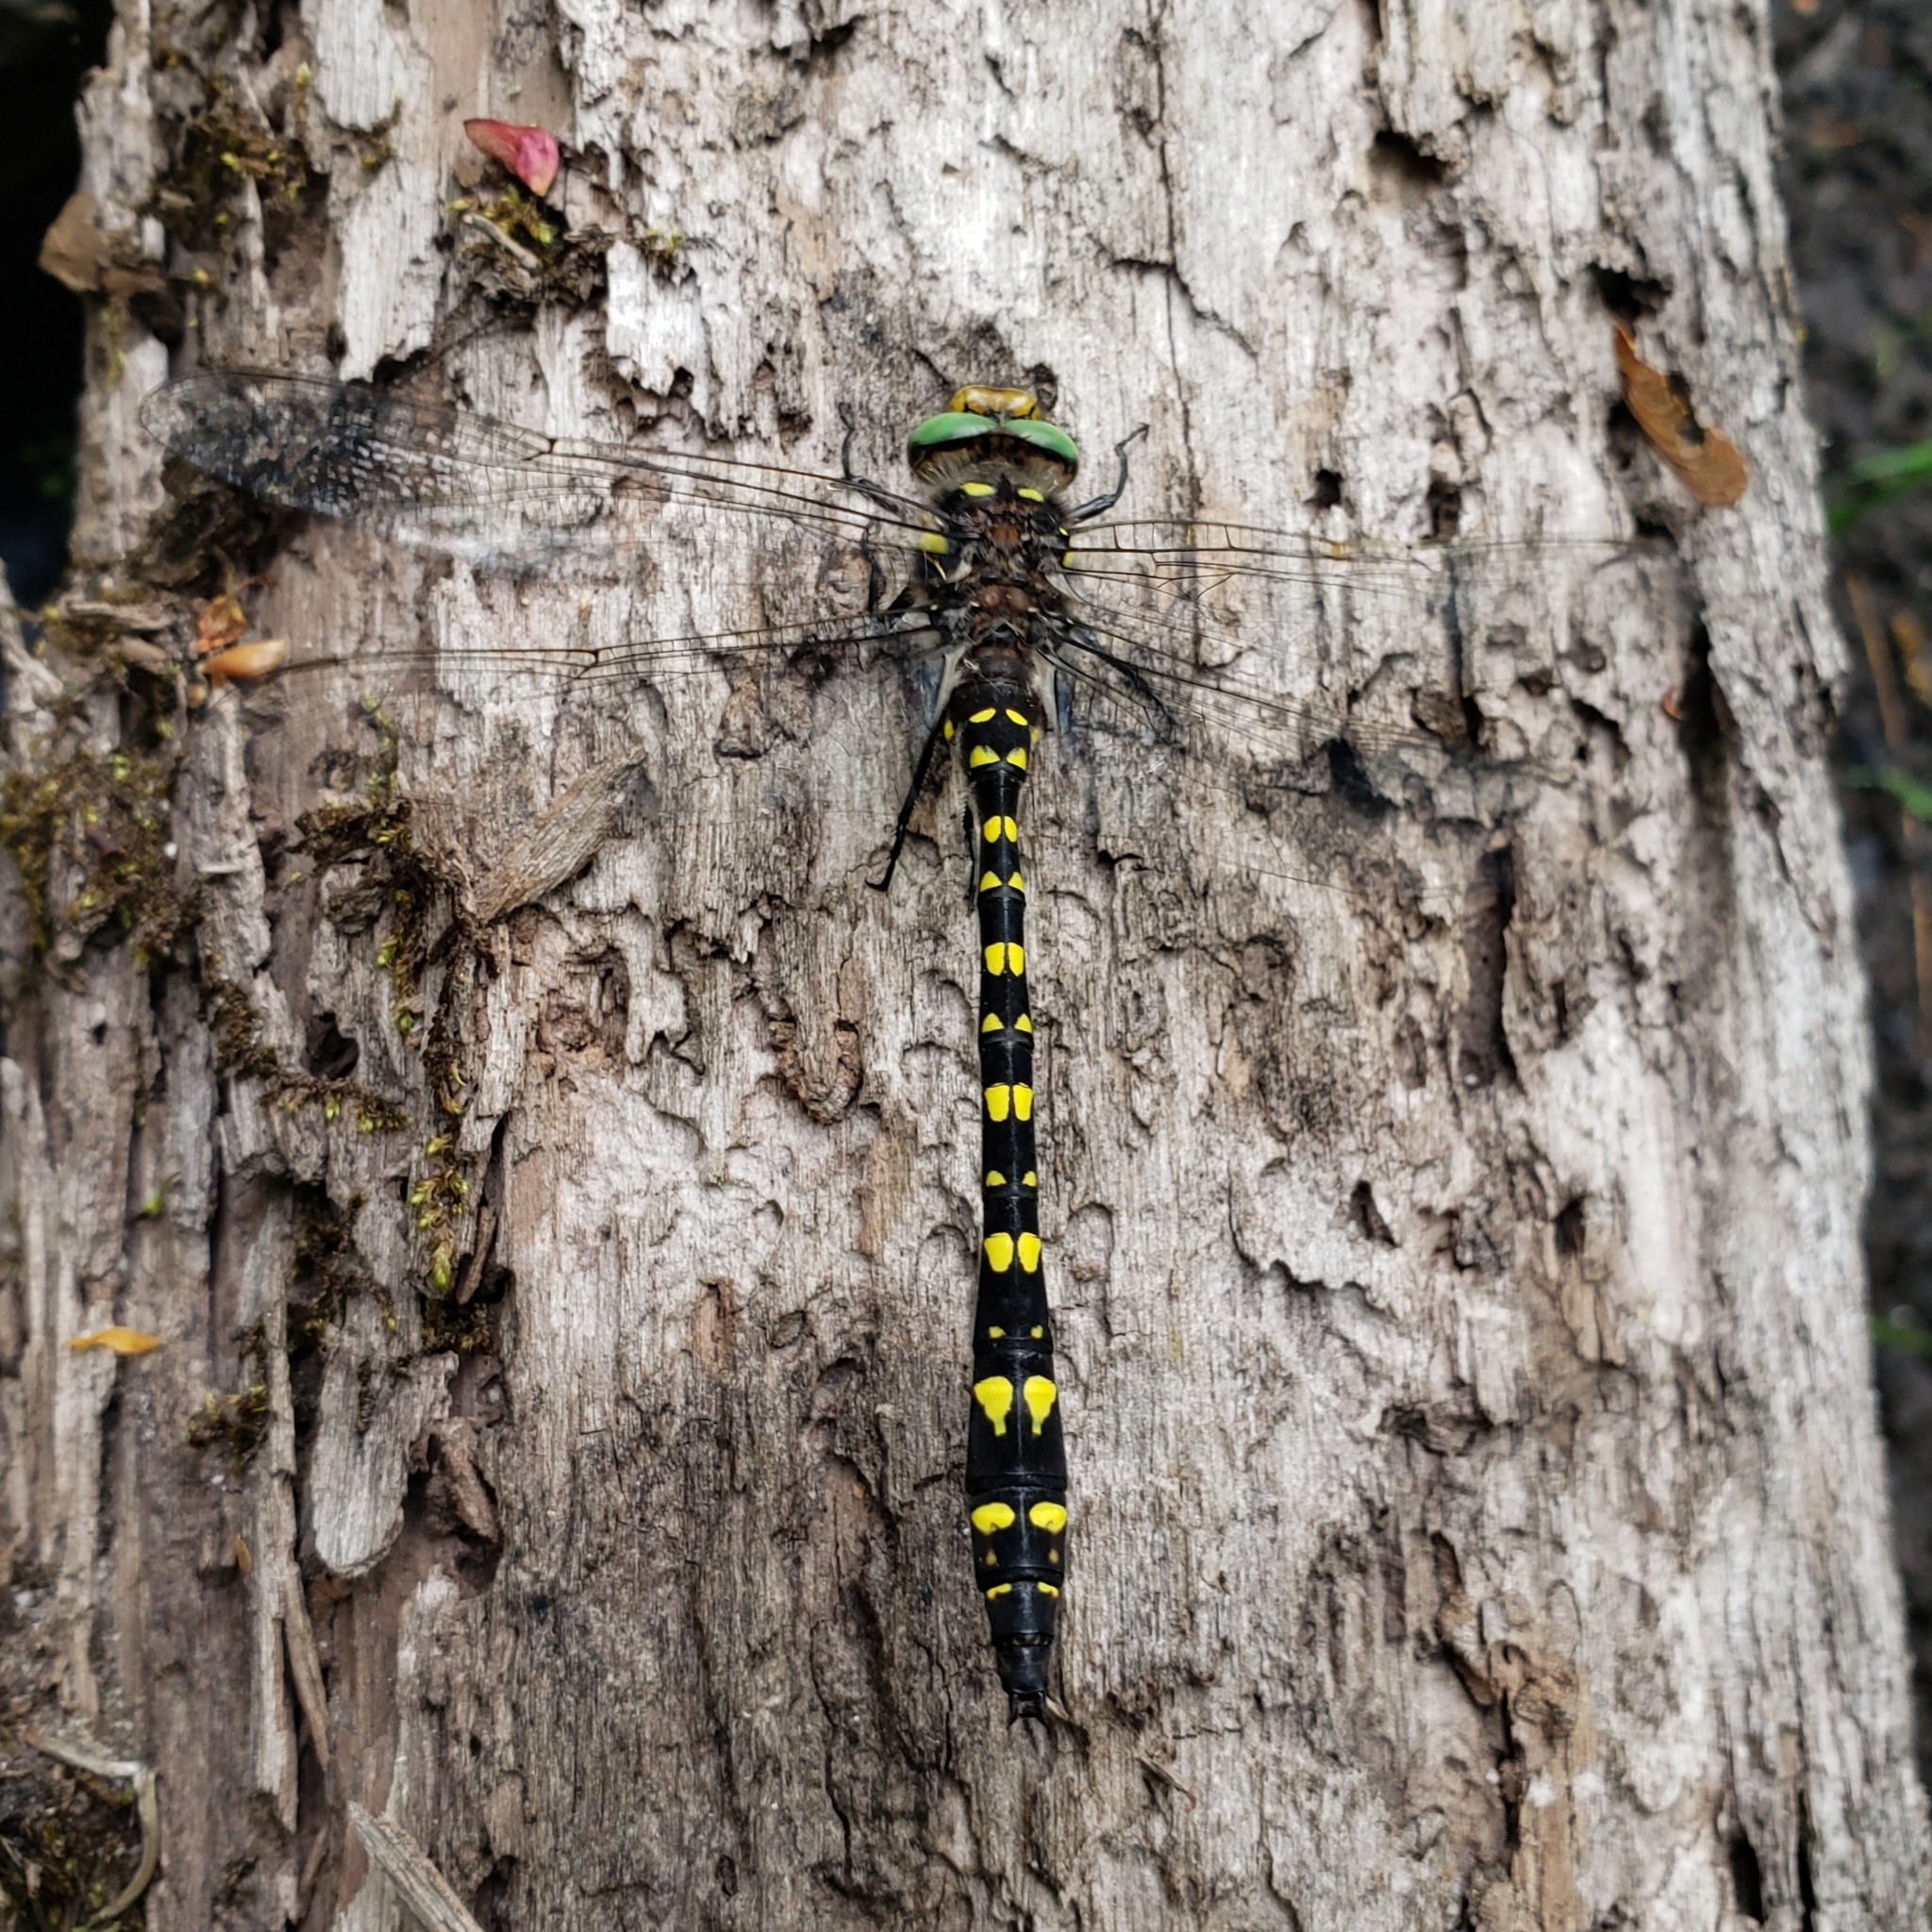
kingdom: Animalia
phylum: Arthropoda
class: Insecta
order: Odonata
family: Cordulegastridae
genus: Cordulegaster
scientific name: Cordulegaster maculata
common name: Twin-spotted spiketail
